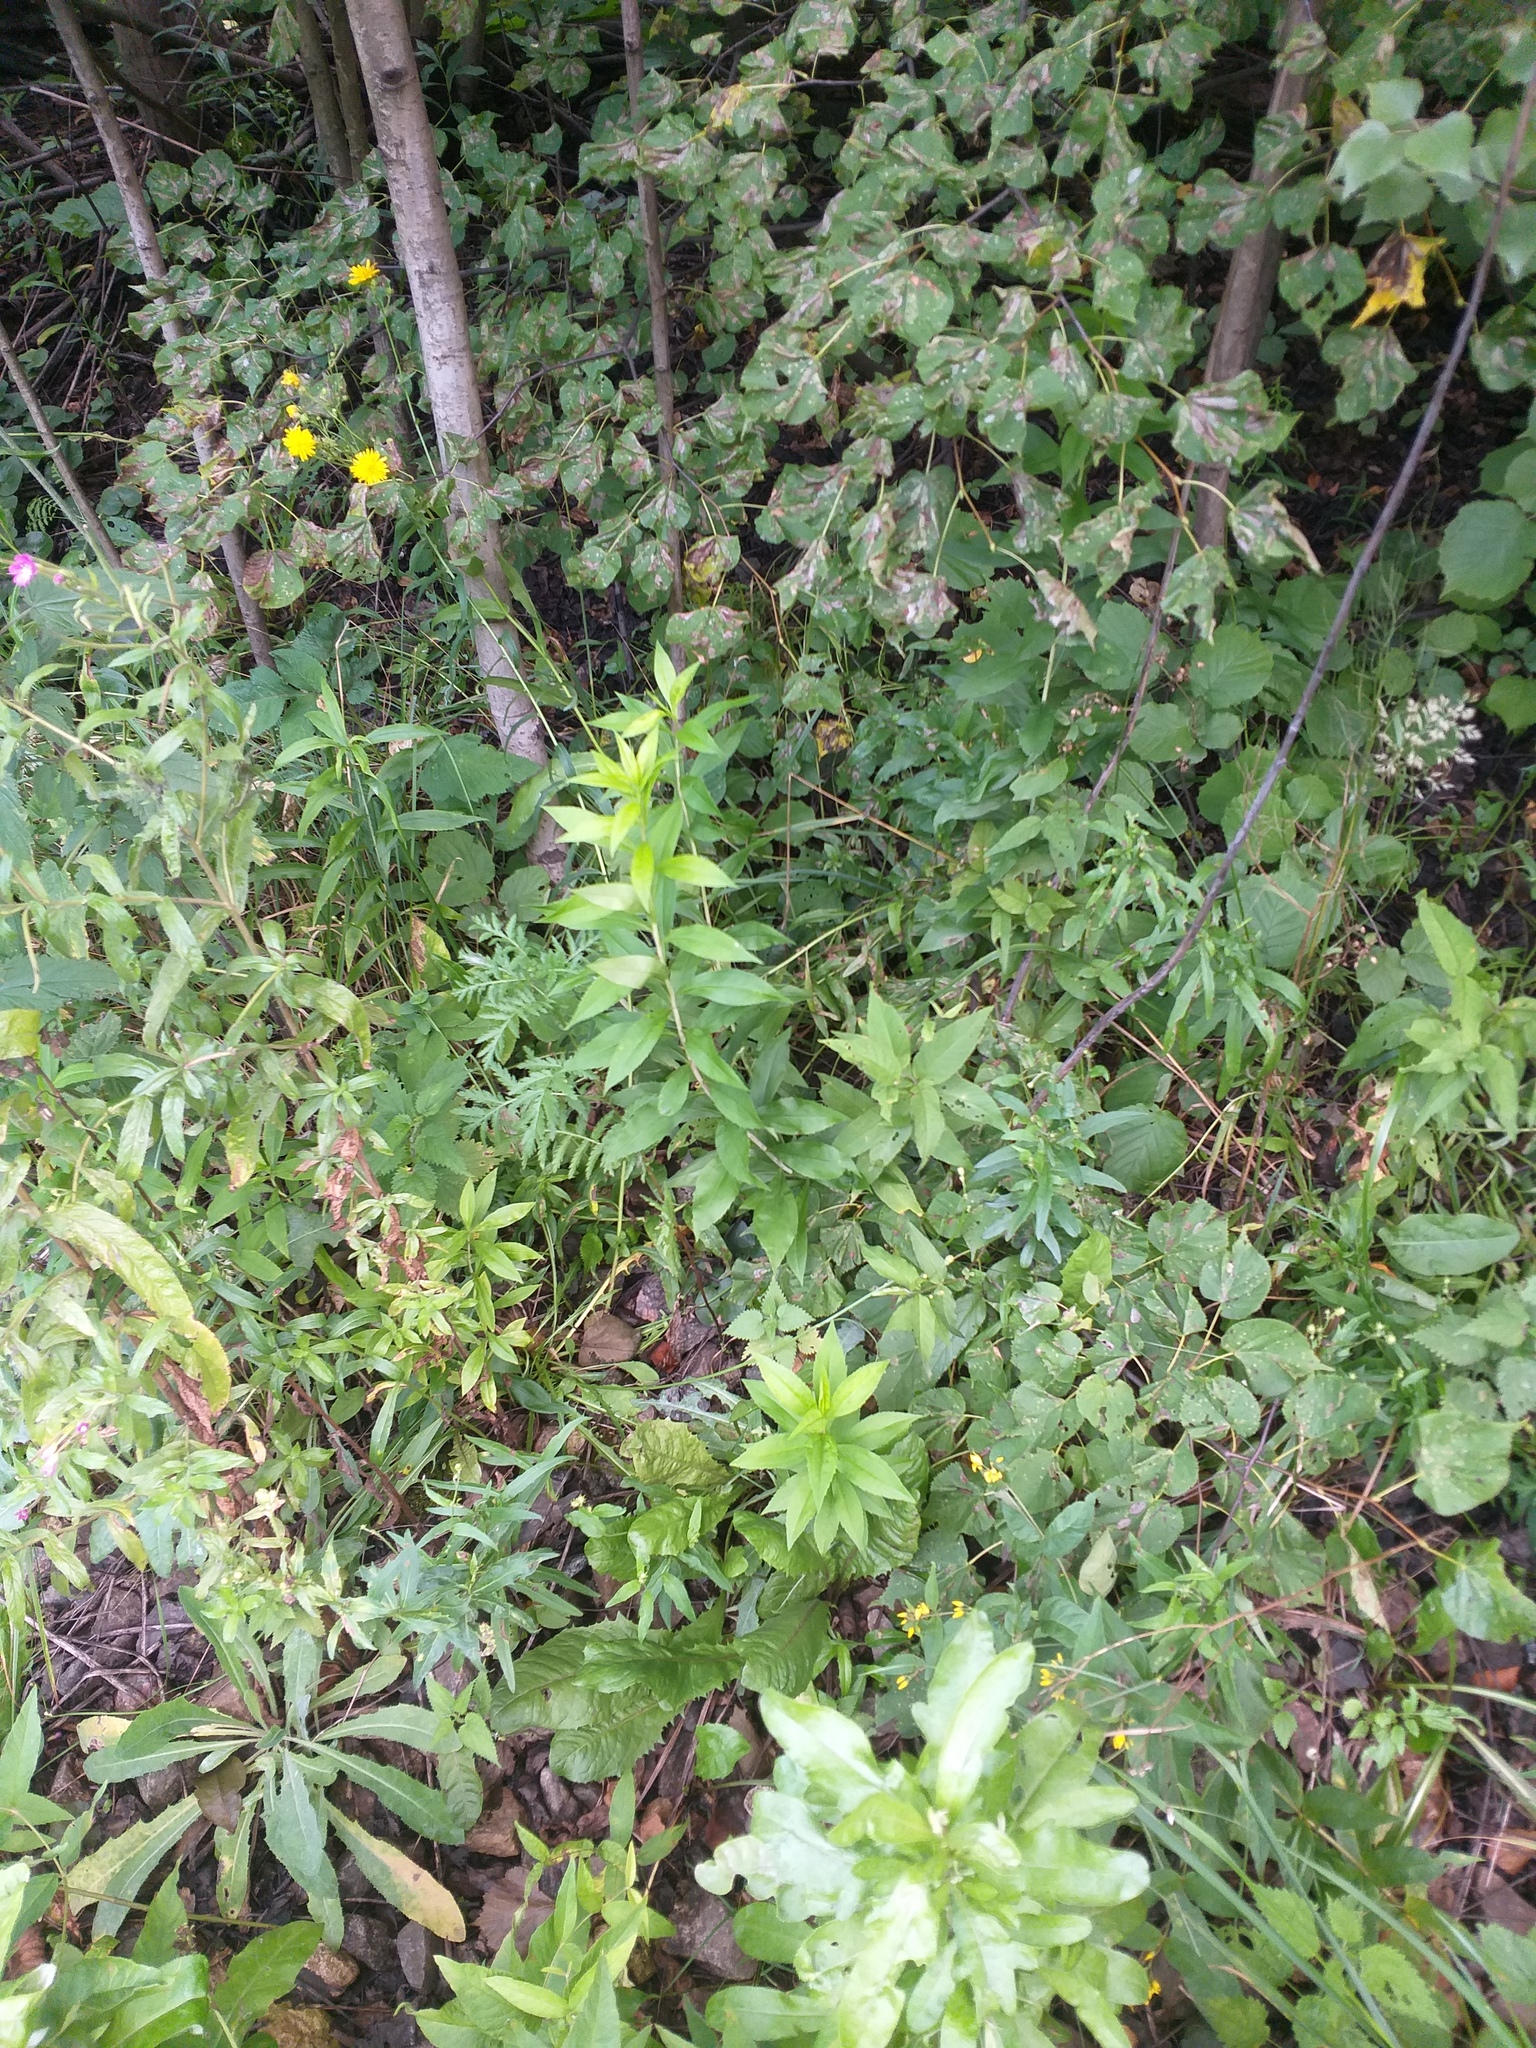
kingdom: Plantae
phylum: Tracheophyta
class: Magnoliopsida
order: Asterales
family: Asteraceae
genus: Solidago
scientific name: Solidago gigantea
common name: Giant goldenrod
